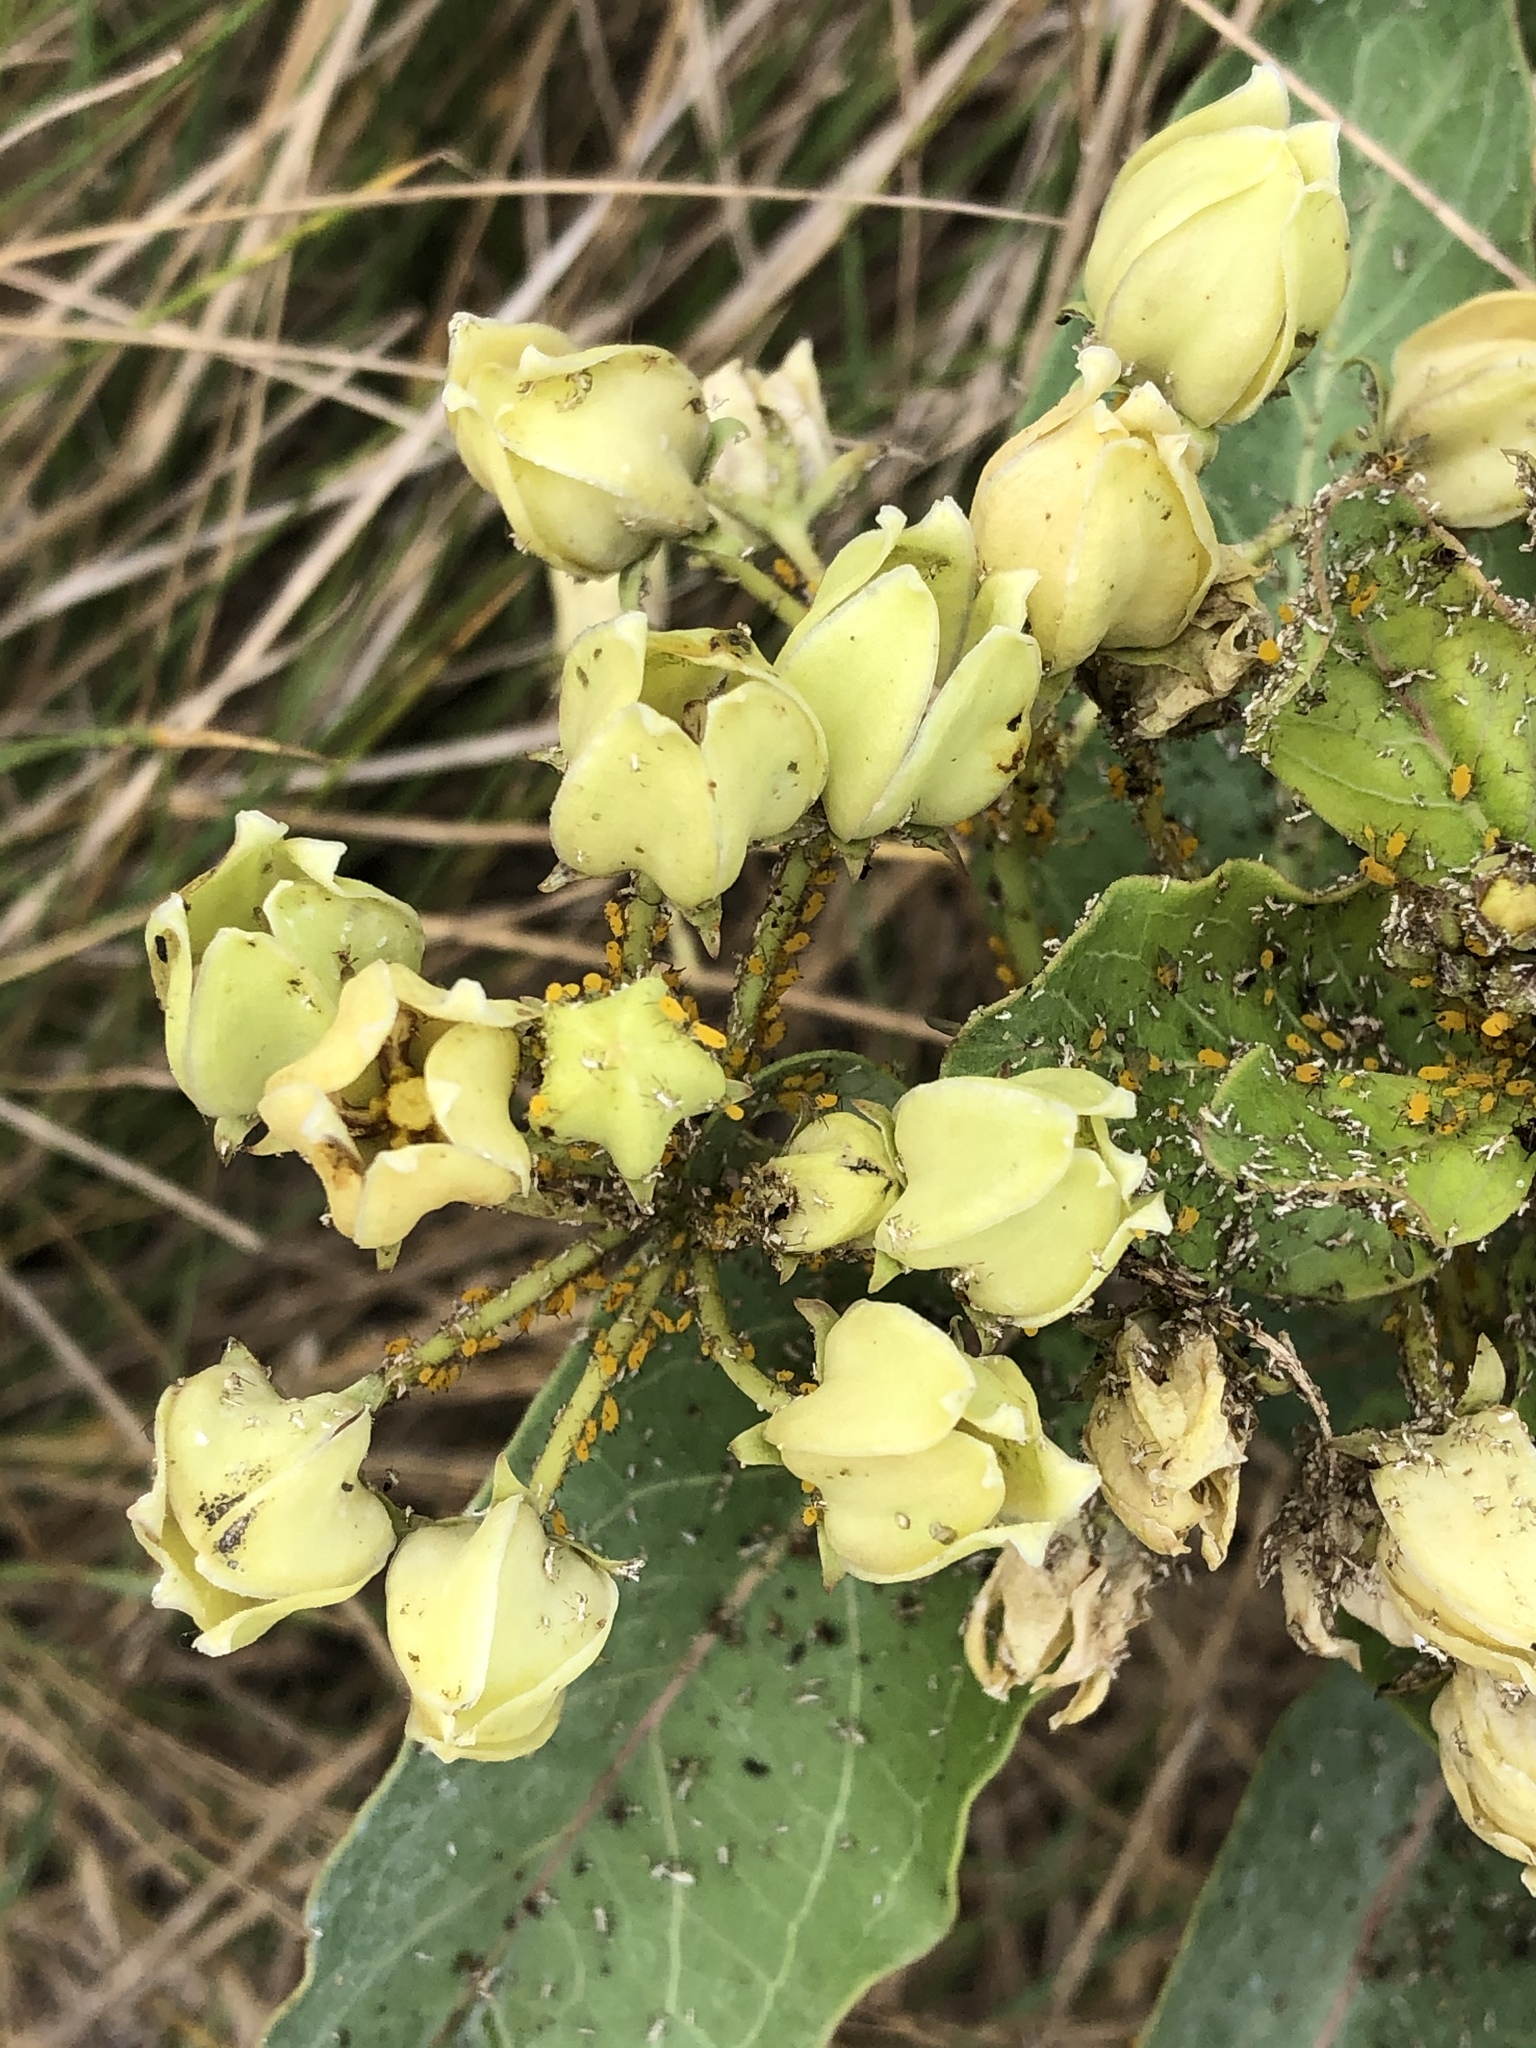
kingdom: Plantae
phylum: Tracheophyta
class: Magnoliopsida
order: Gentianales
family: Apocynaceae
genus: Asclepias
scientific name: Asclepias viridis
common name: Antelope-horns
